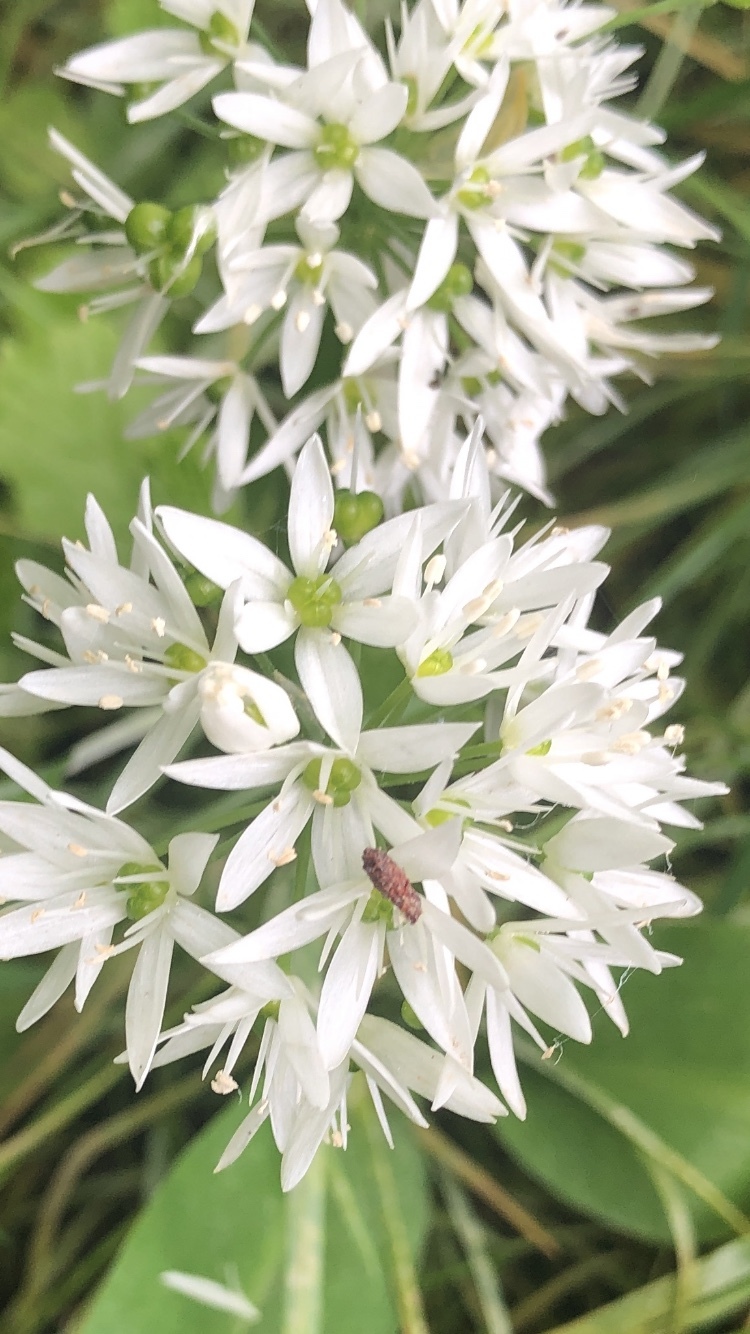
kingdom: Plantae
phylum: Tracheophyta
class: Liliopsida
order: Asparagales
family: Amaryllidaceae
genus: Allium
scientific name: Allium ursinum
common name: Ramsons
